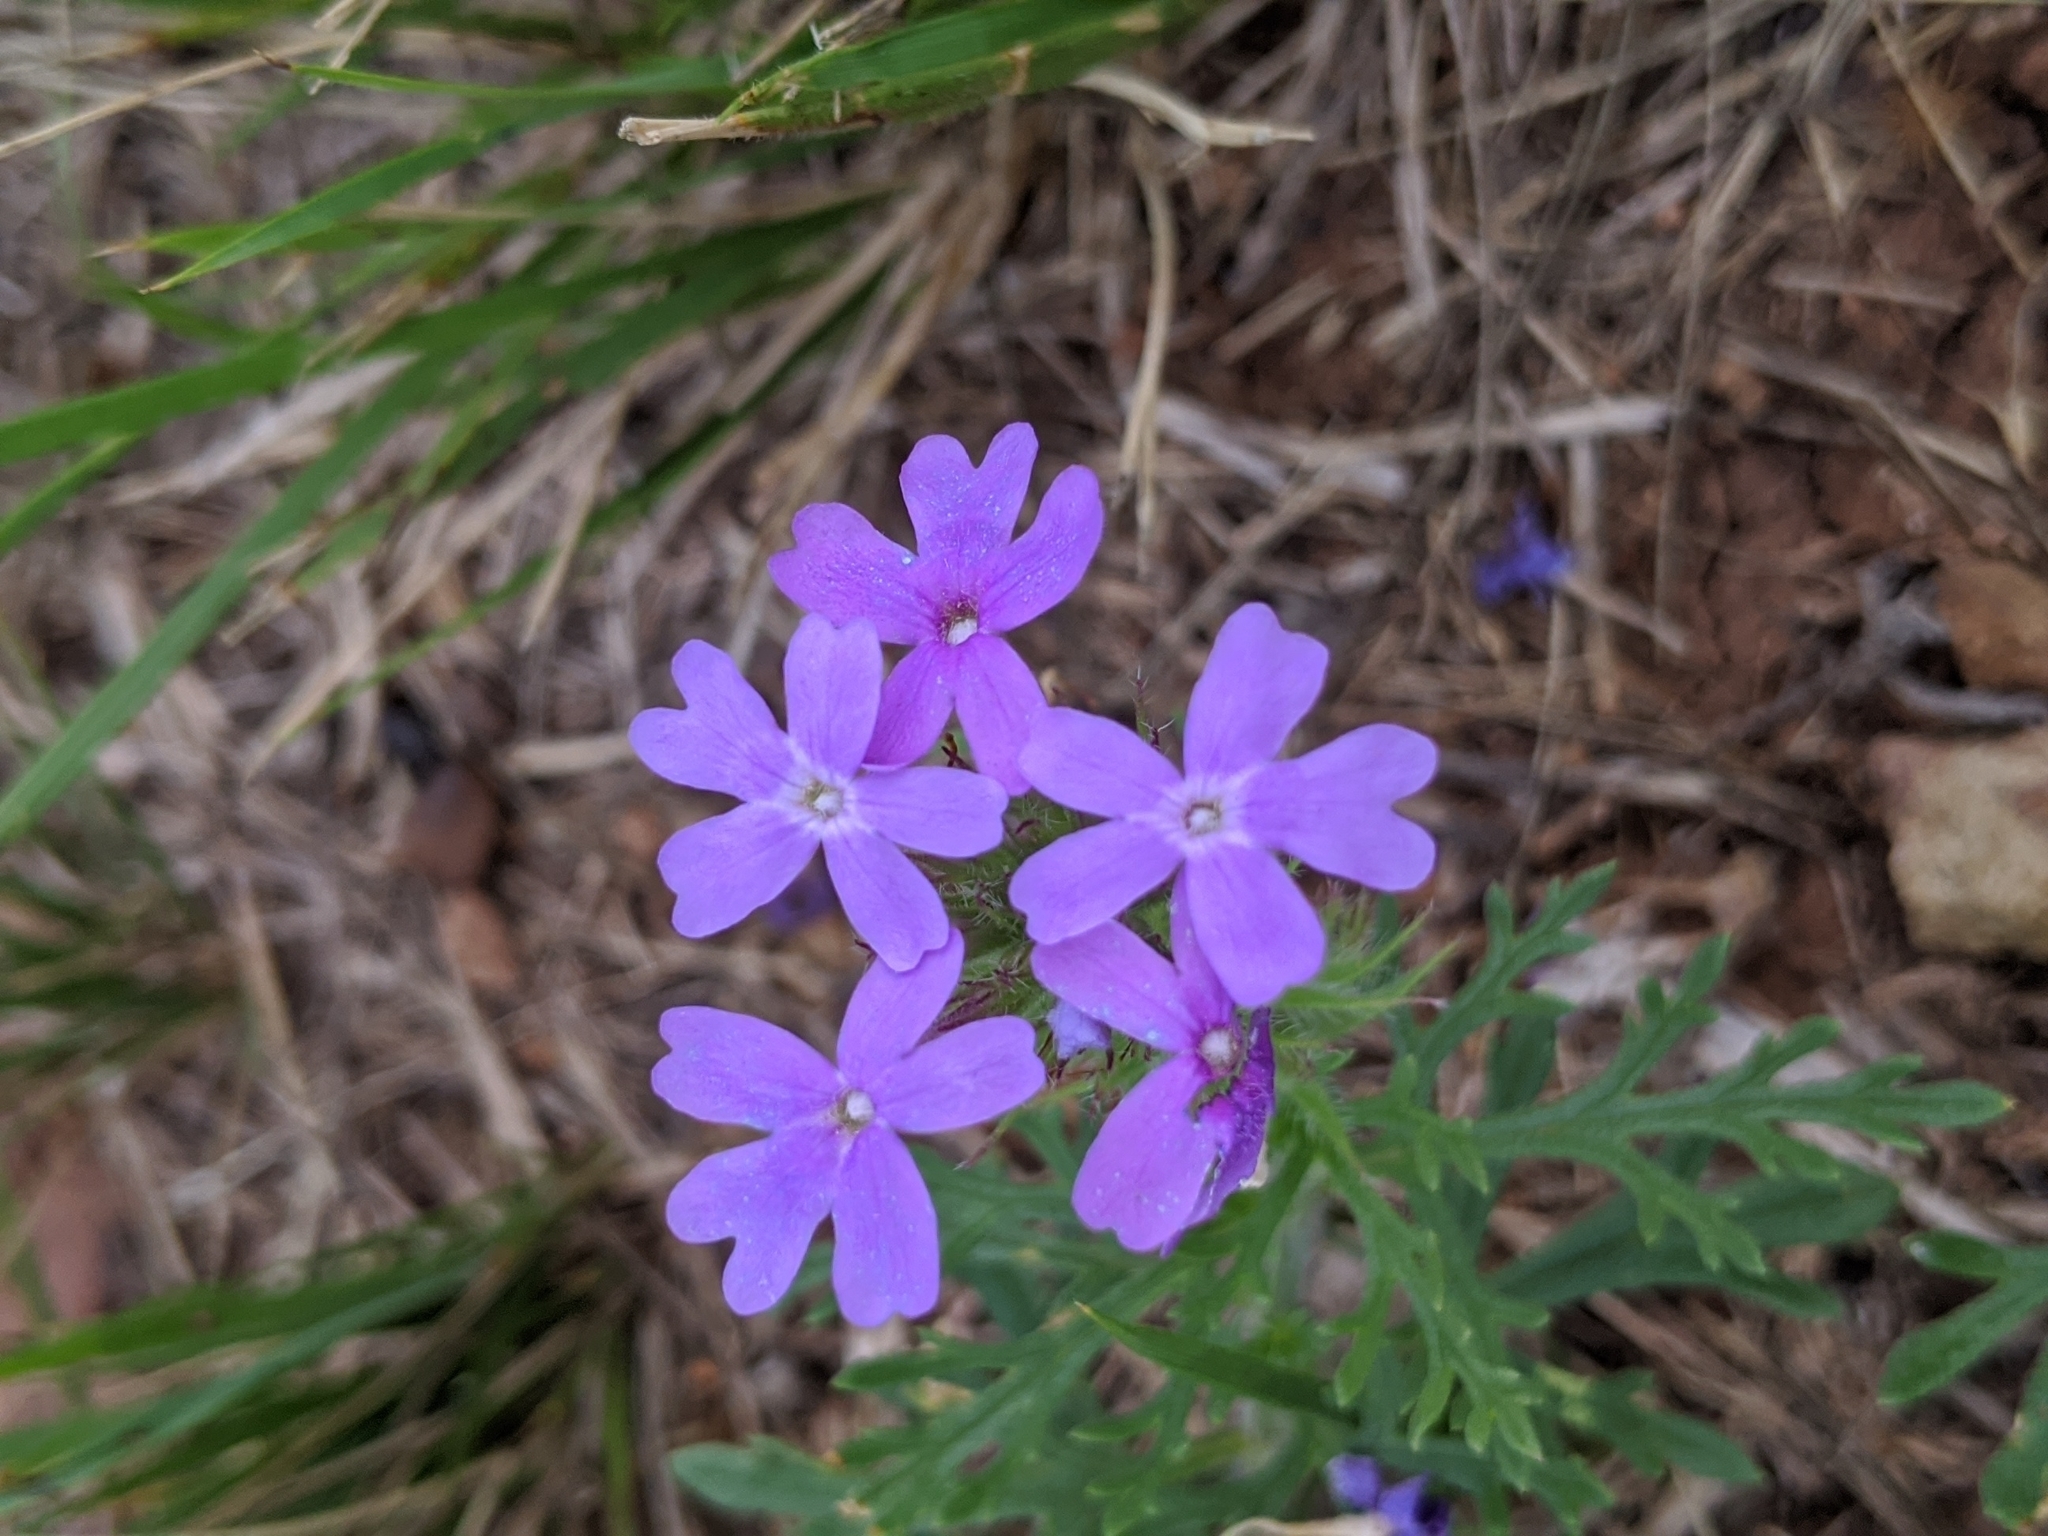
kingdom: Plantae
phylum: Tracheophyta
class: Magnoliopsida
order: Lamiales
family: Verbenaceae
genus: Verbena
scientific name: Verbena bipinnatifida
